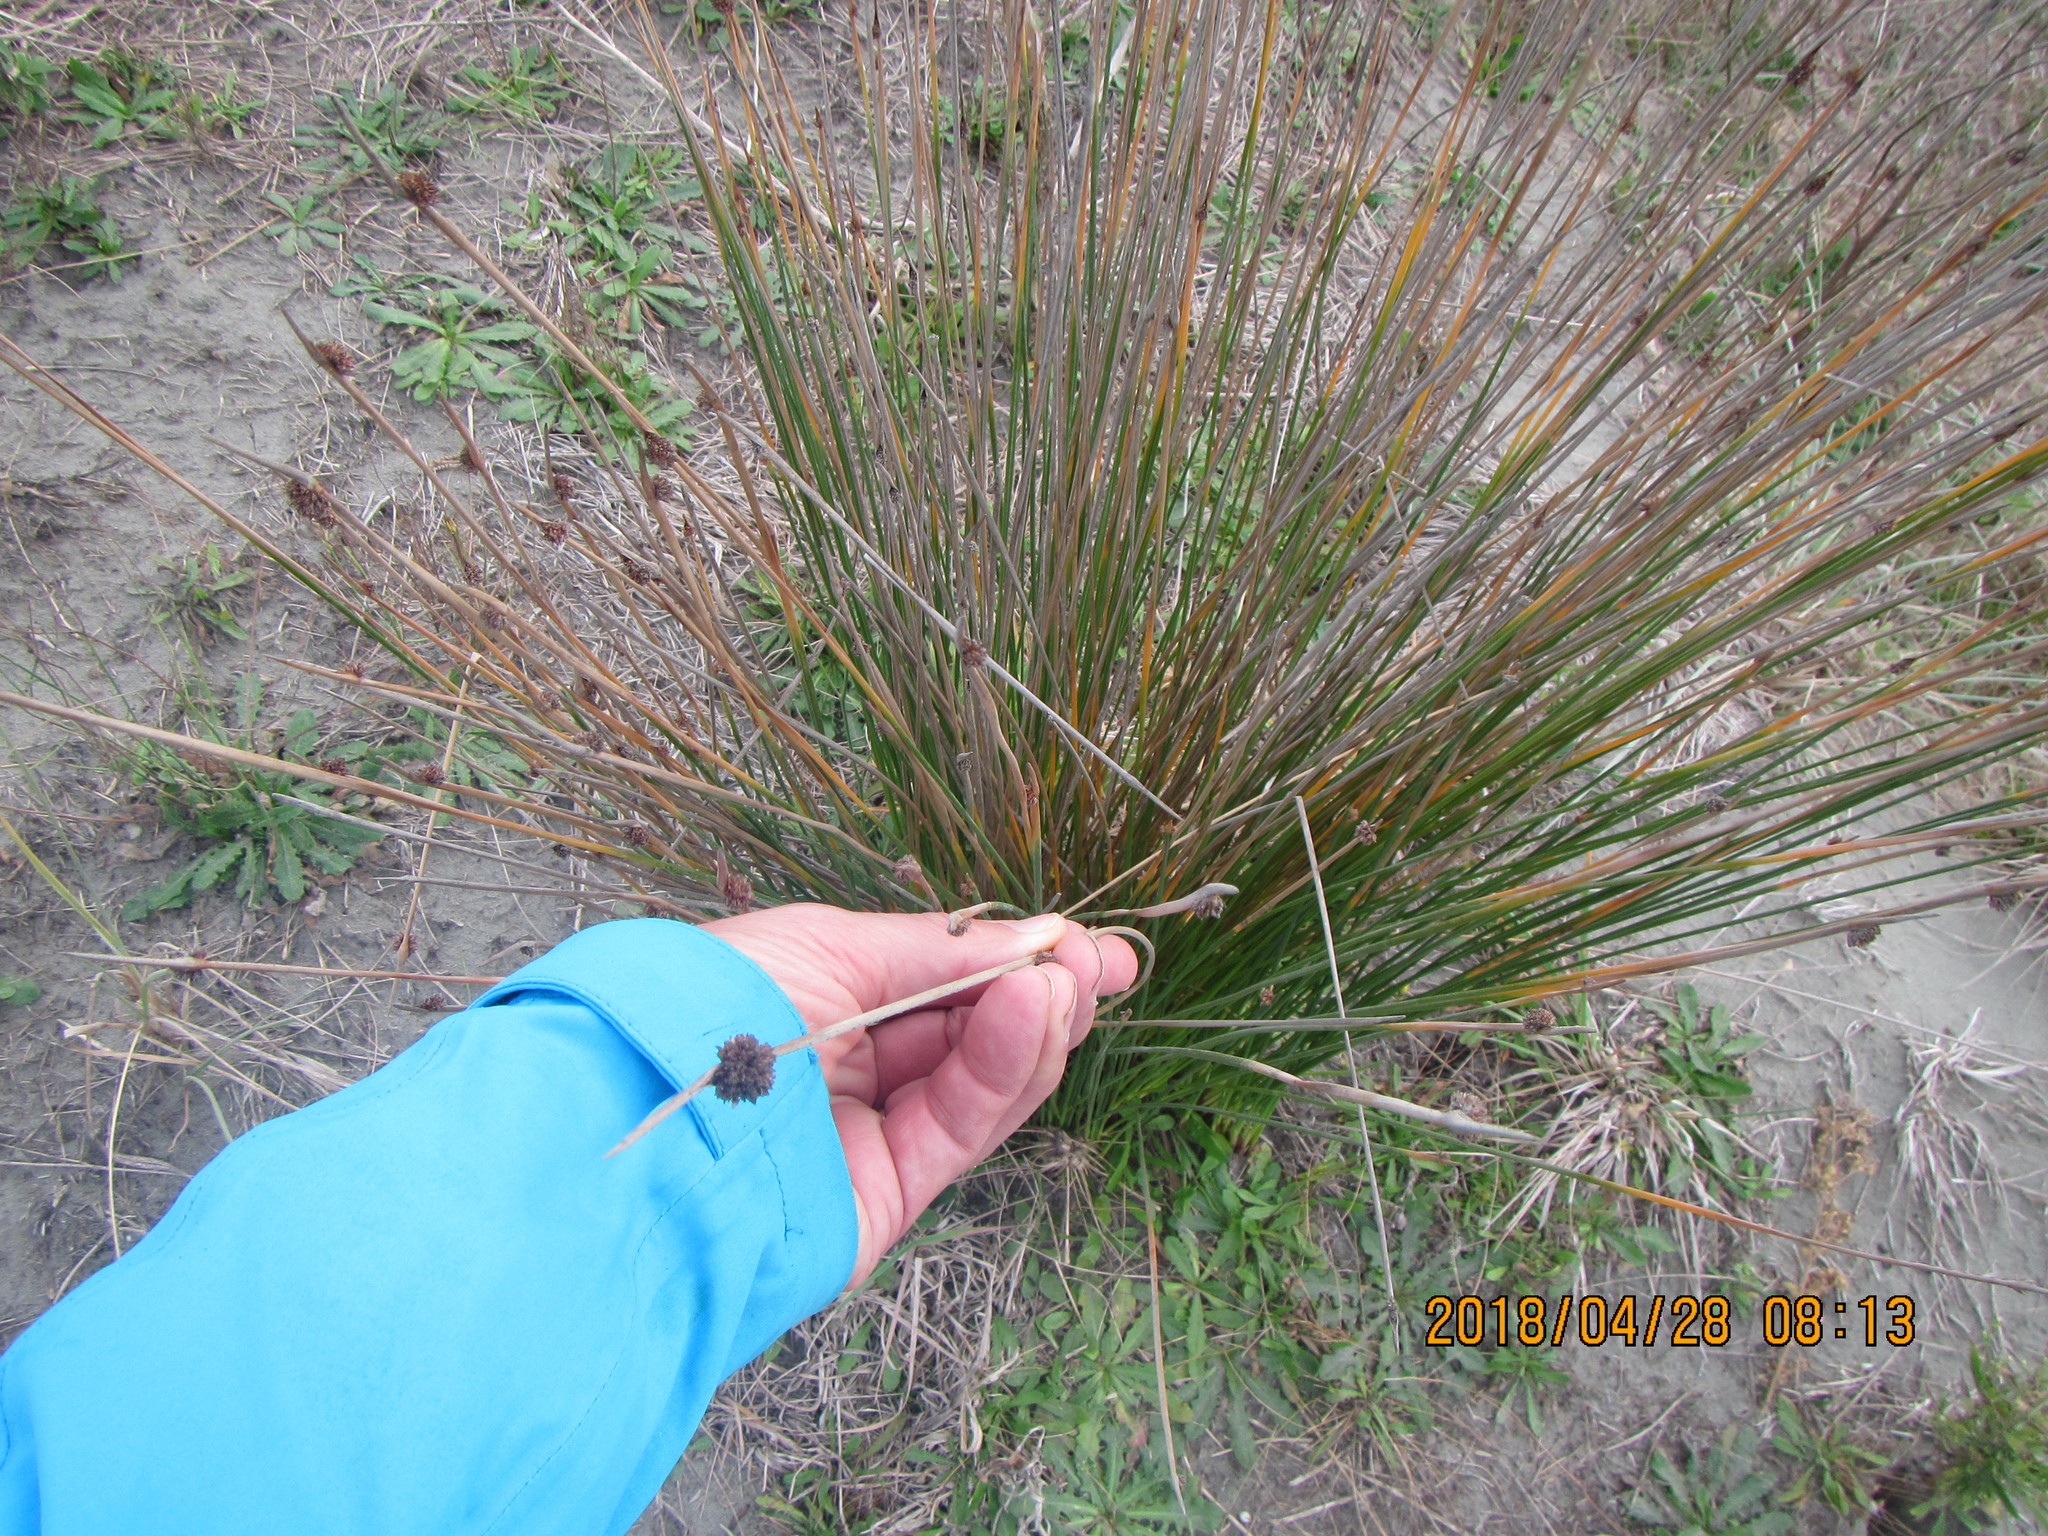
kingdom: Plantae
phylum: Tracheophyta
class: Liliopsida
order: Poales
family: Cyperaceae
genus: Ficinia
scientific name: Ficinia nodosa
